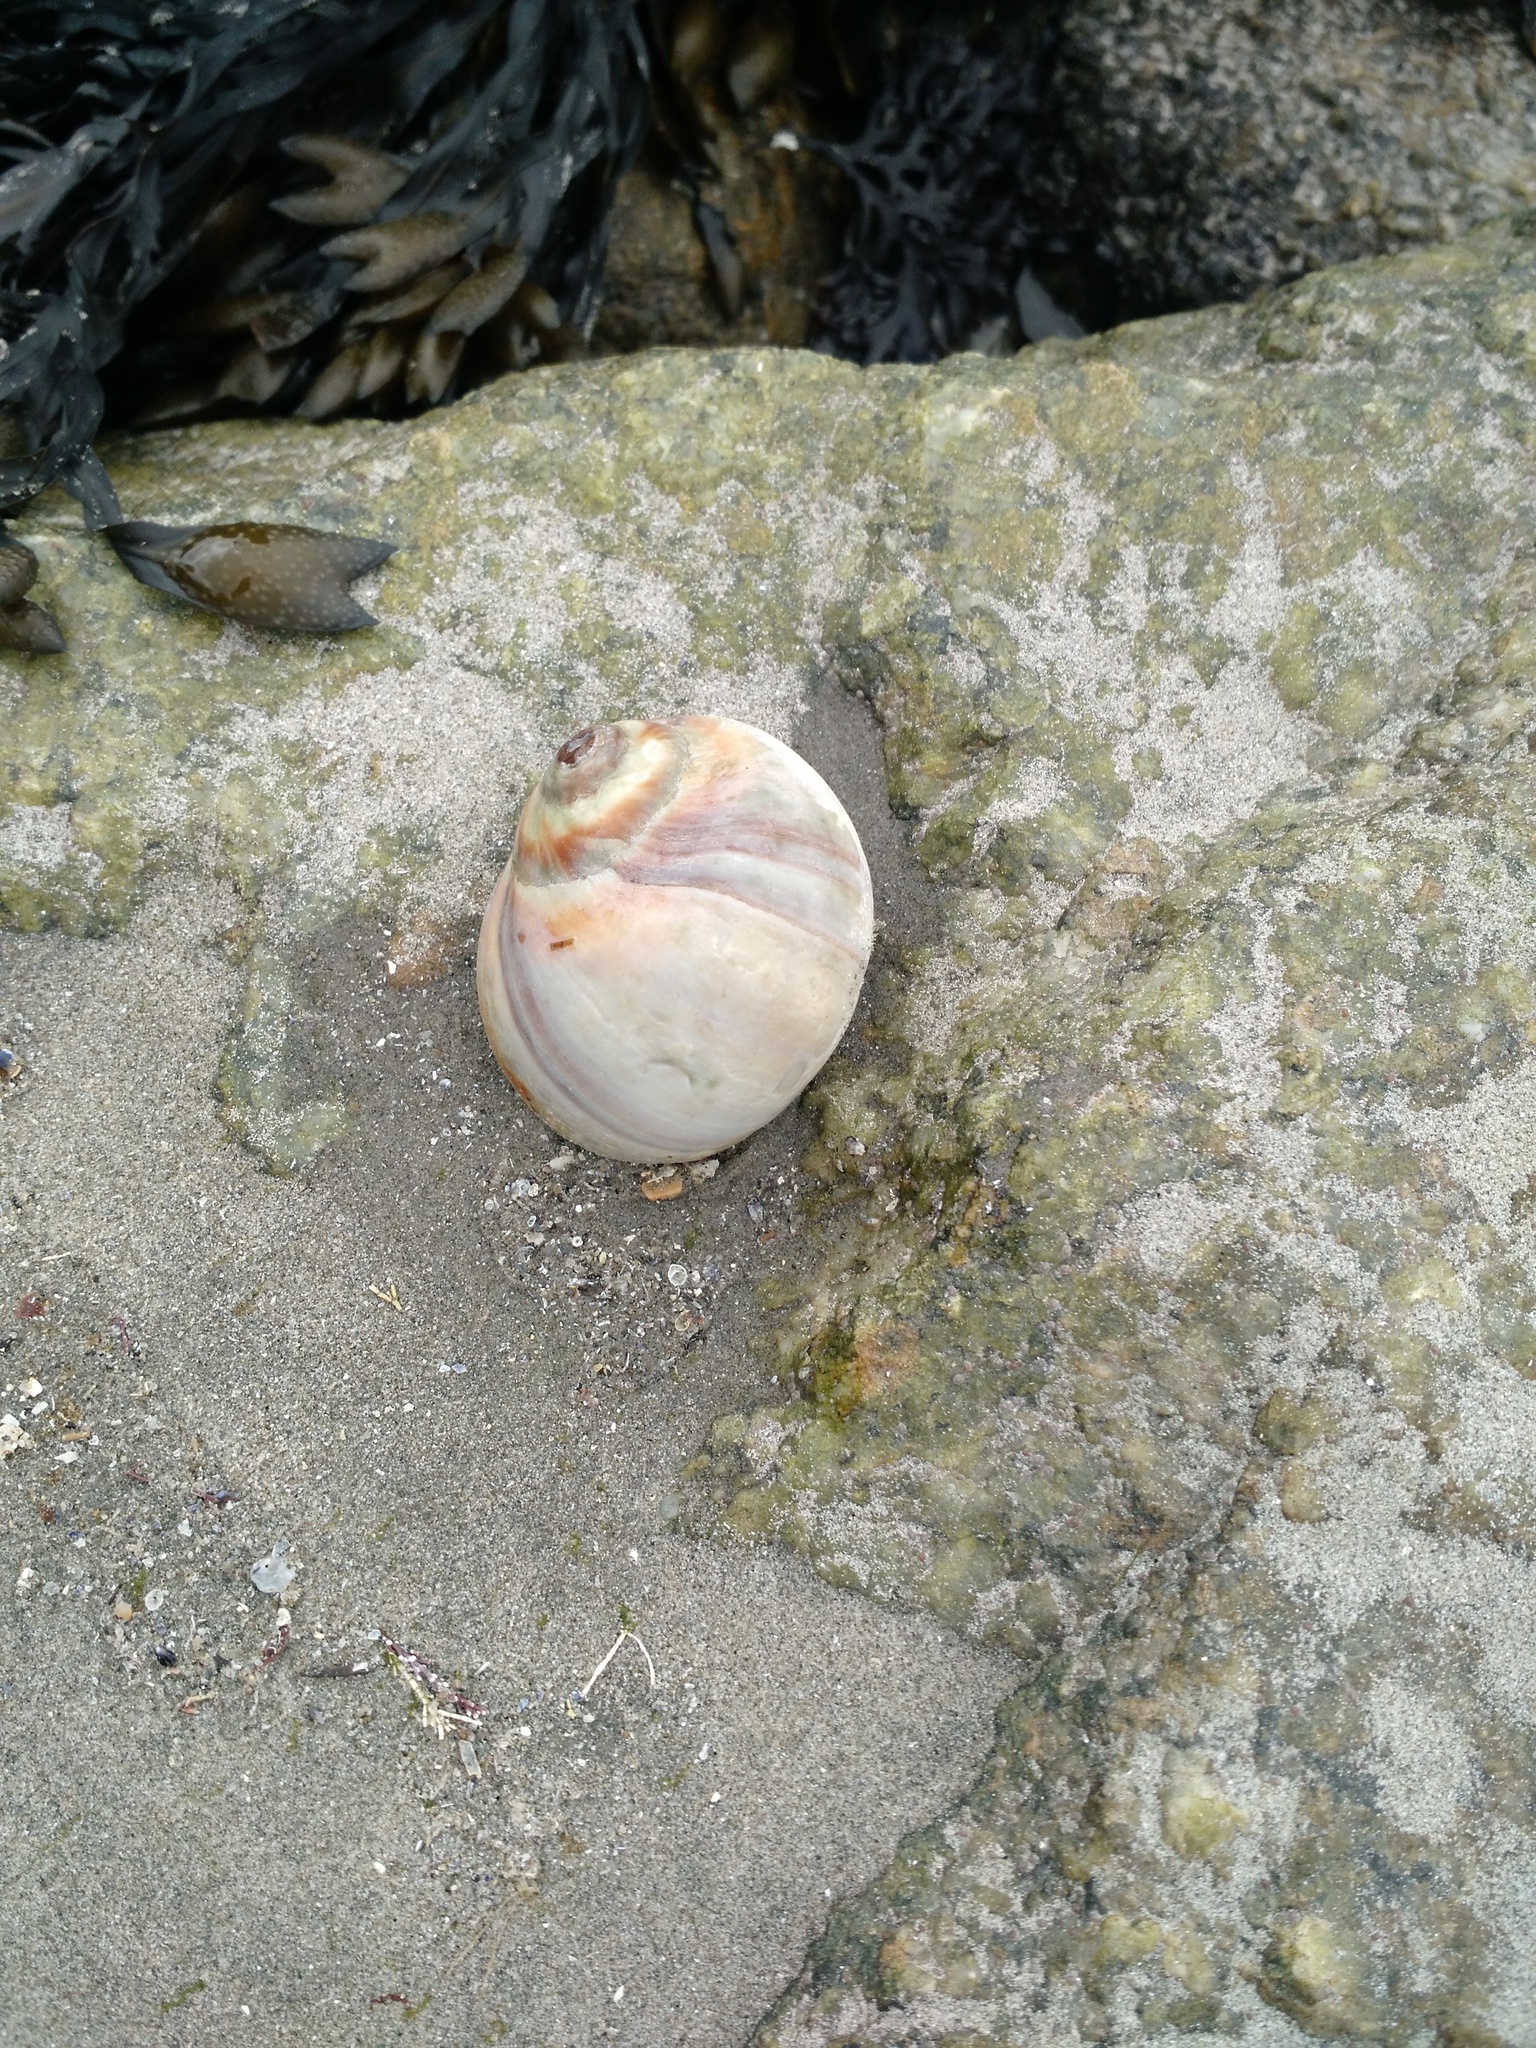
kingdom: Animalia
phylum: Mollusca
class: Gastropoda
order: Littorinimorpha
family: Naticidae
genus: Euspira
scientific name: Euspira heros
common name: Common northern moonsnail
